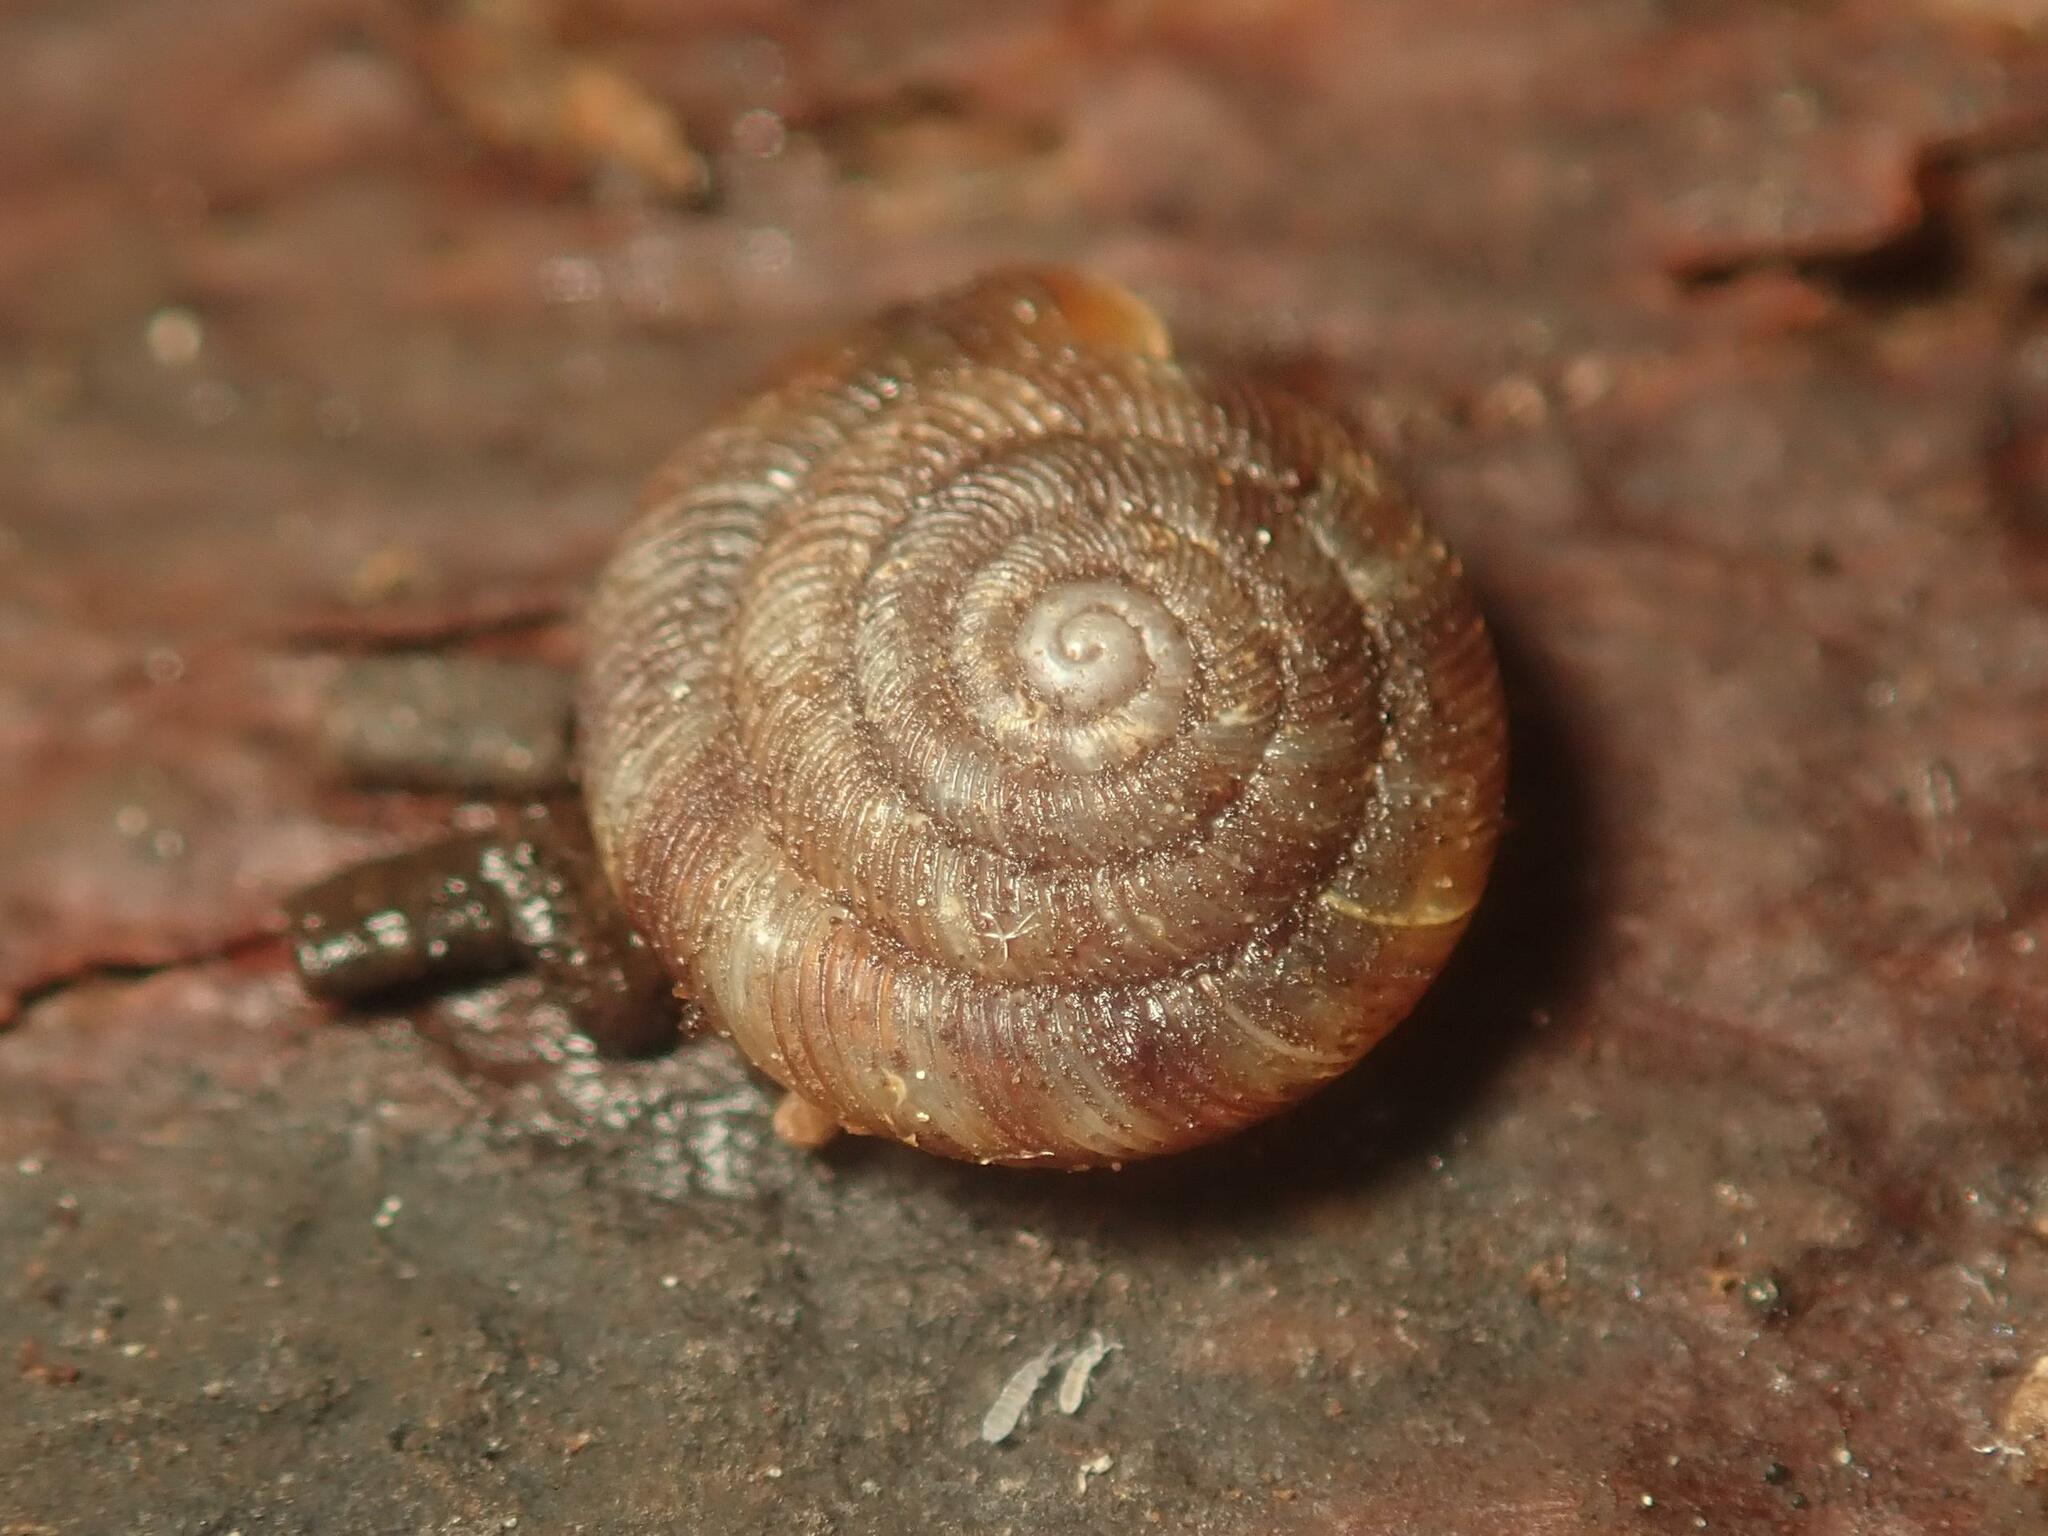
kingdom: Animalia
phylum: Mollusca
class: Gastropoda
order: Stylommatophora
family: Discidae
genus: Discus
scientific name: Discus rotundatus
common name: Rounded snail
